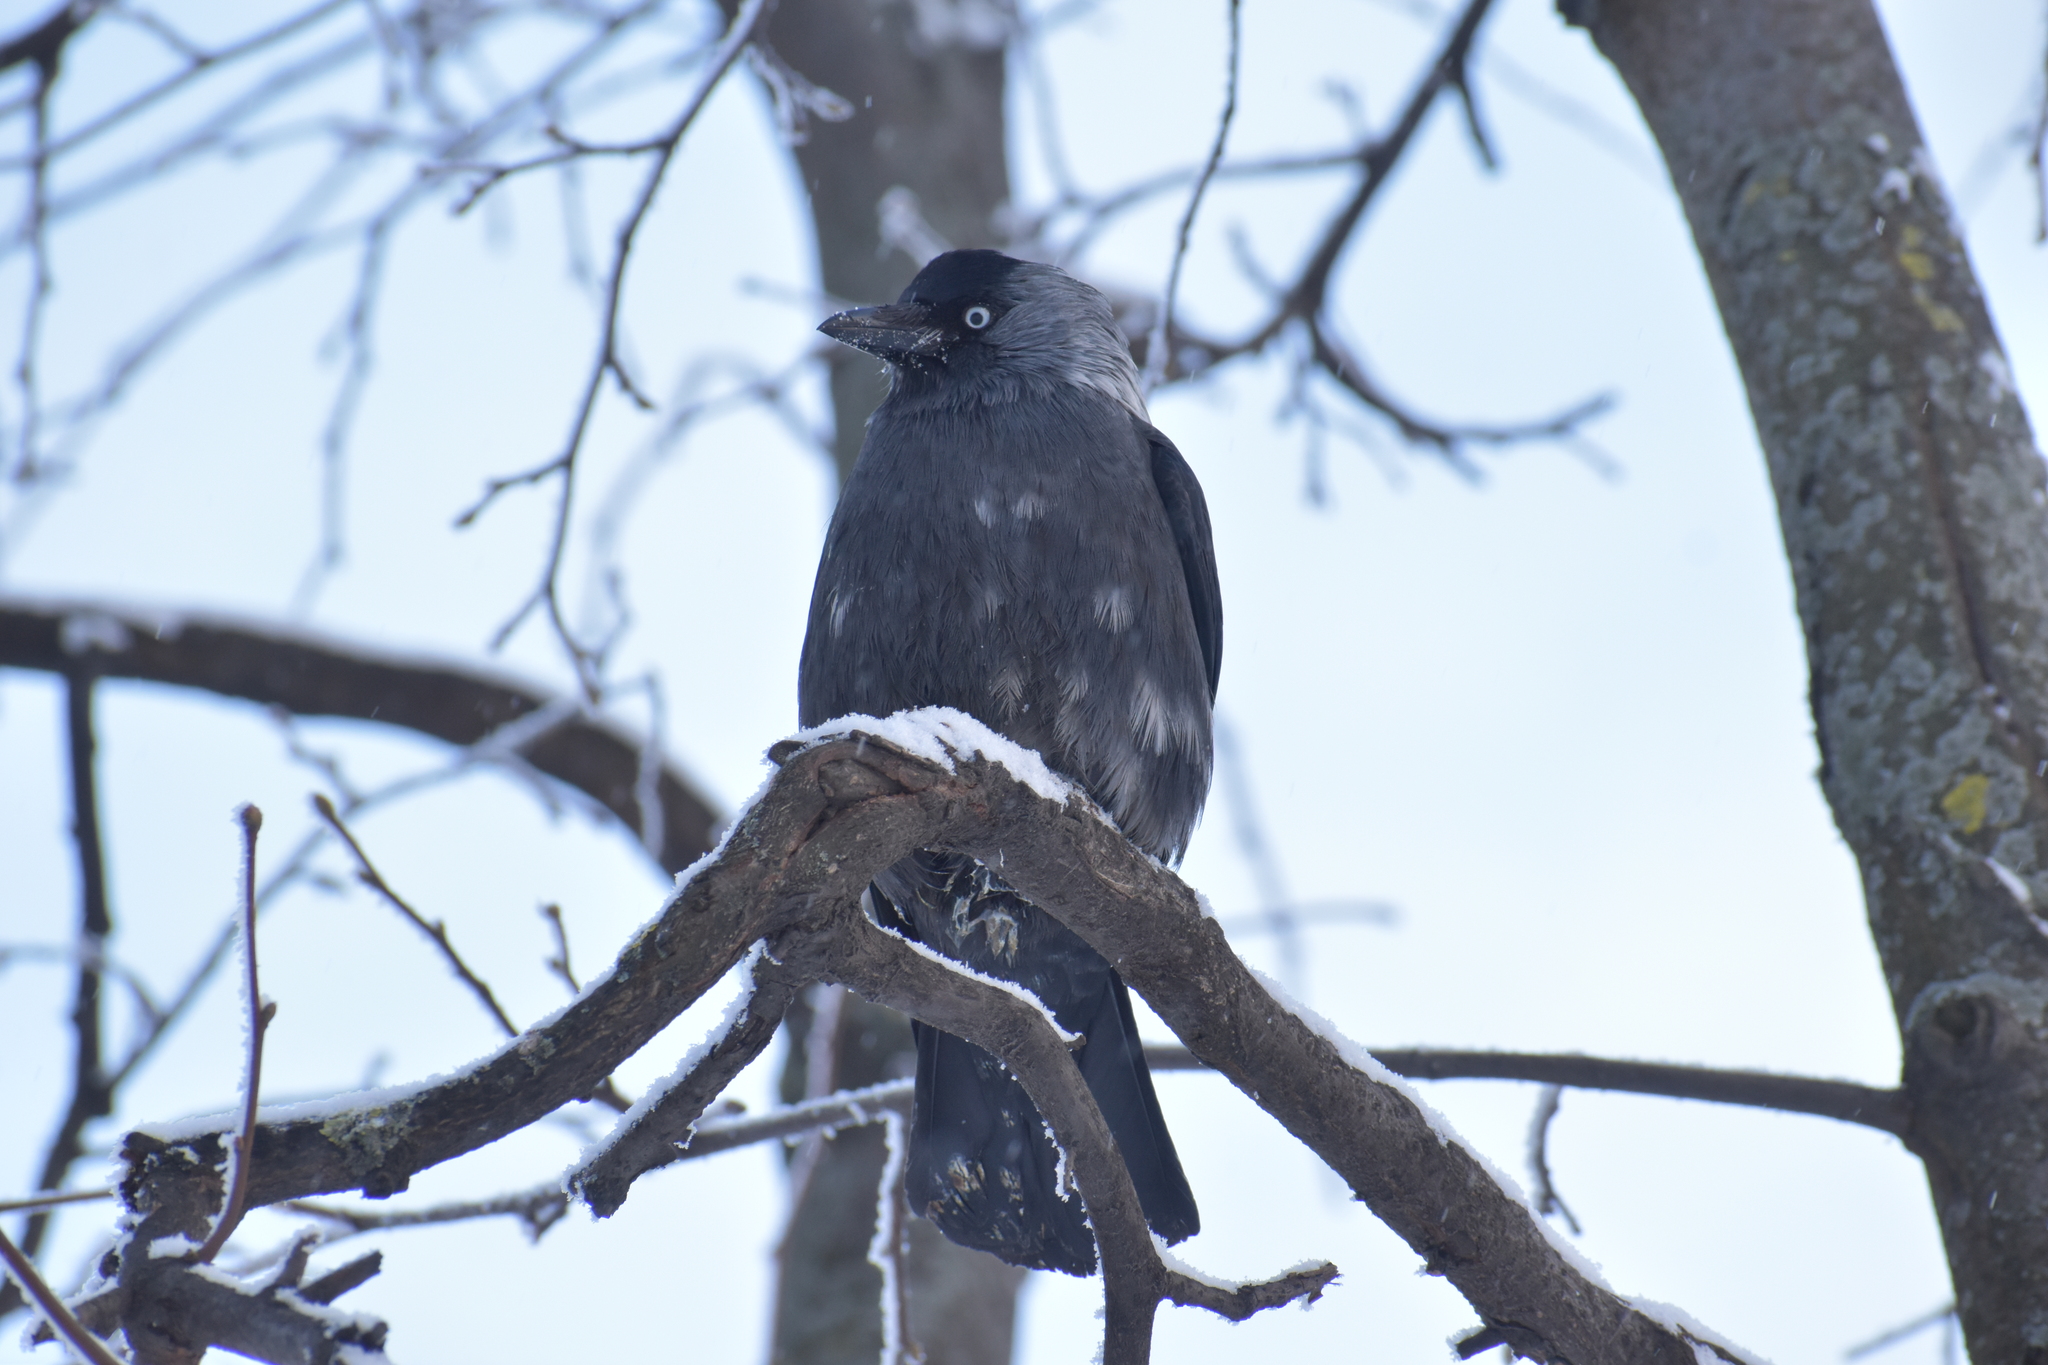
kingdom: Animalia
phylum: Chordata
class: Aves
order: Passeriformes
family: Corvidae
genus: Coloeus
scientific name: Coloeus monedula
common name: Western jackdaw
